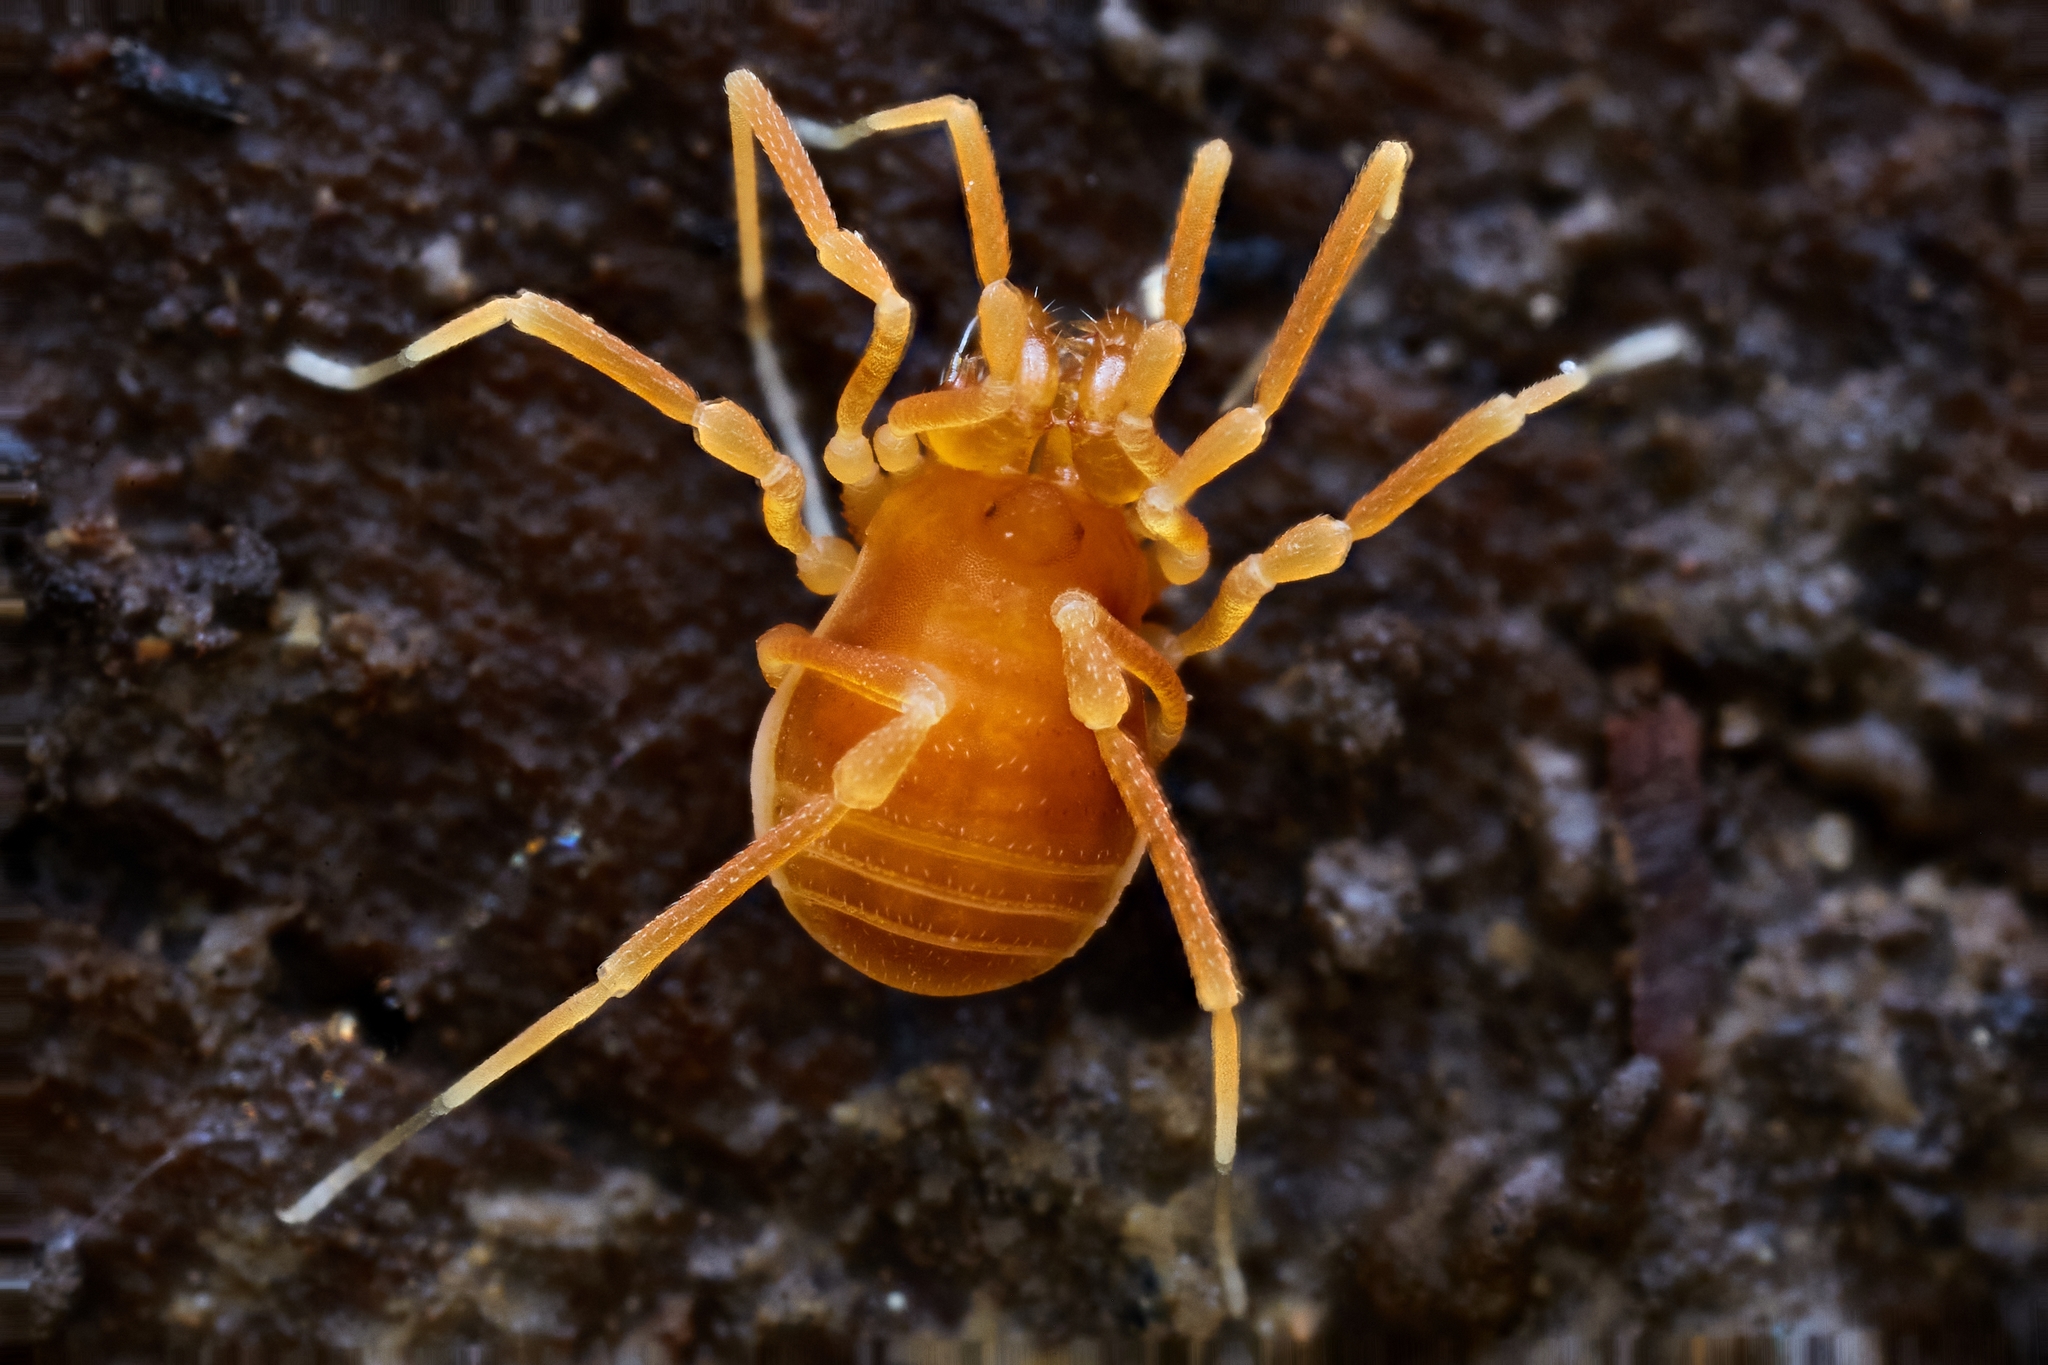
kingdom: Animalia
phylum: Arthropoda
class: Arachnida
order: Opiliones
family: Phalangodidae
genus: Megacina
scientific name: Megacina cockerelli
